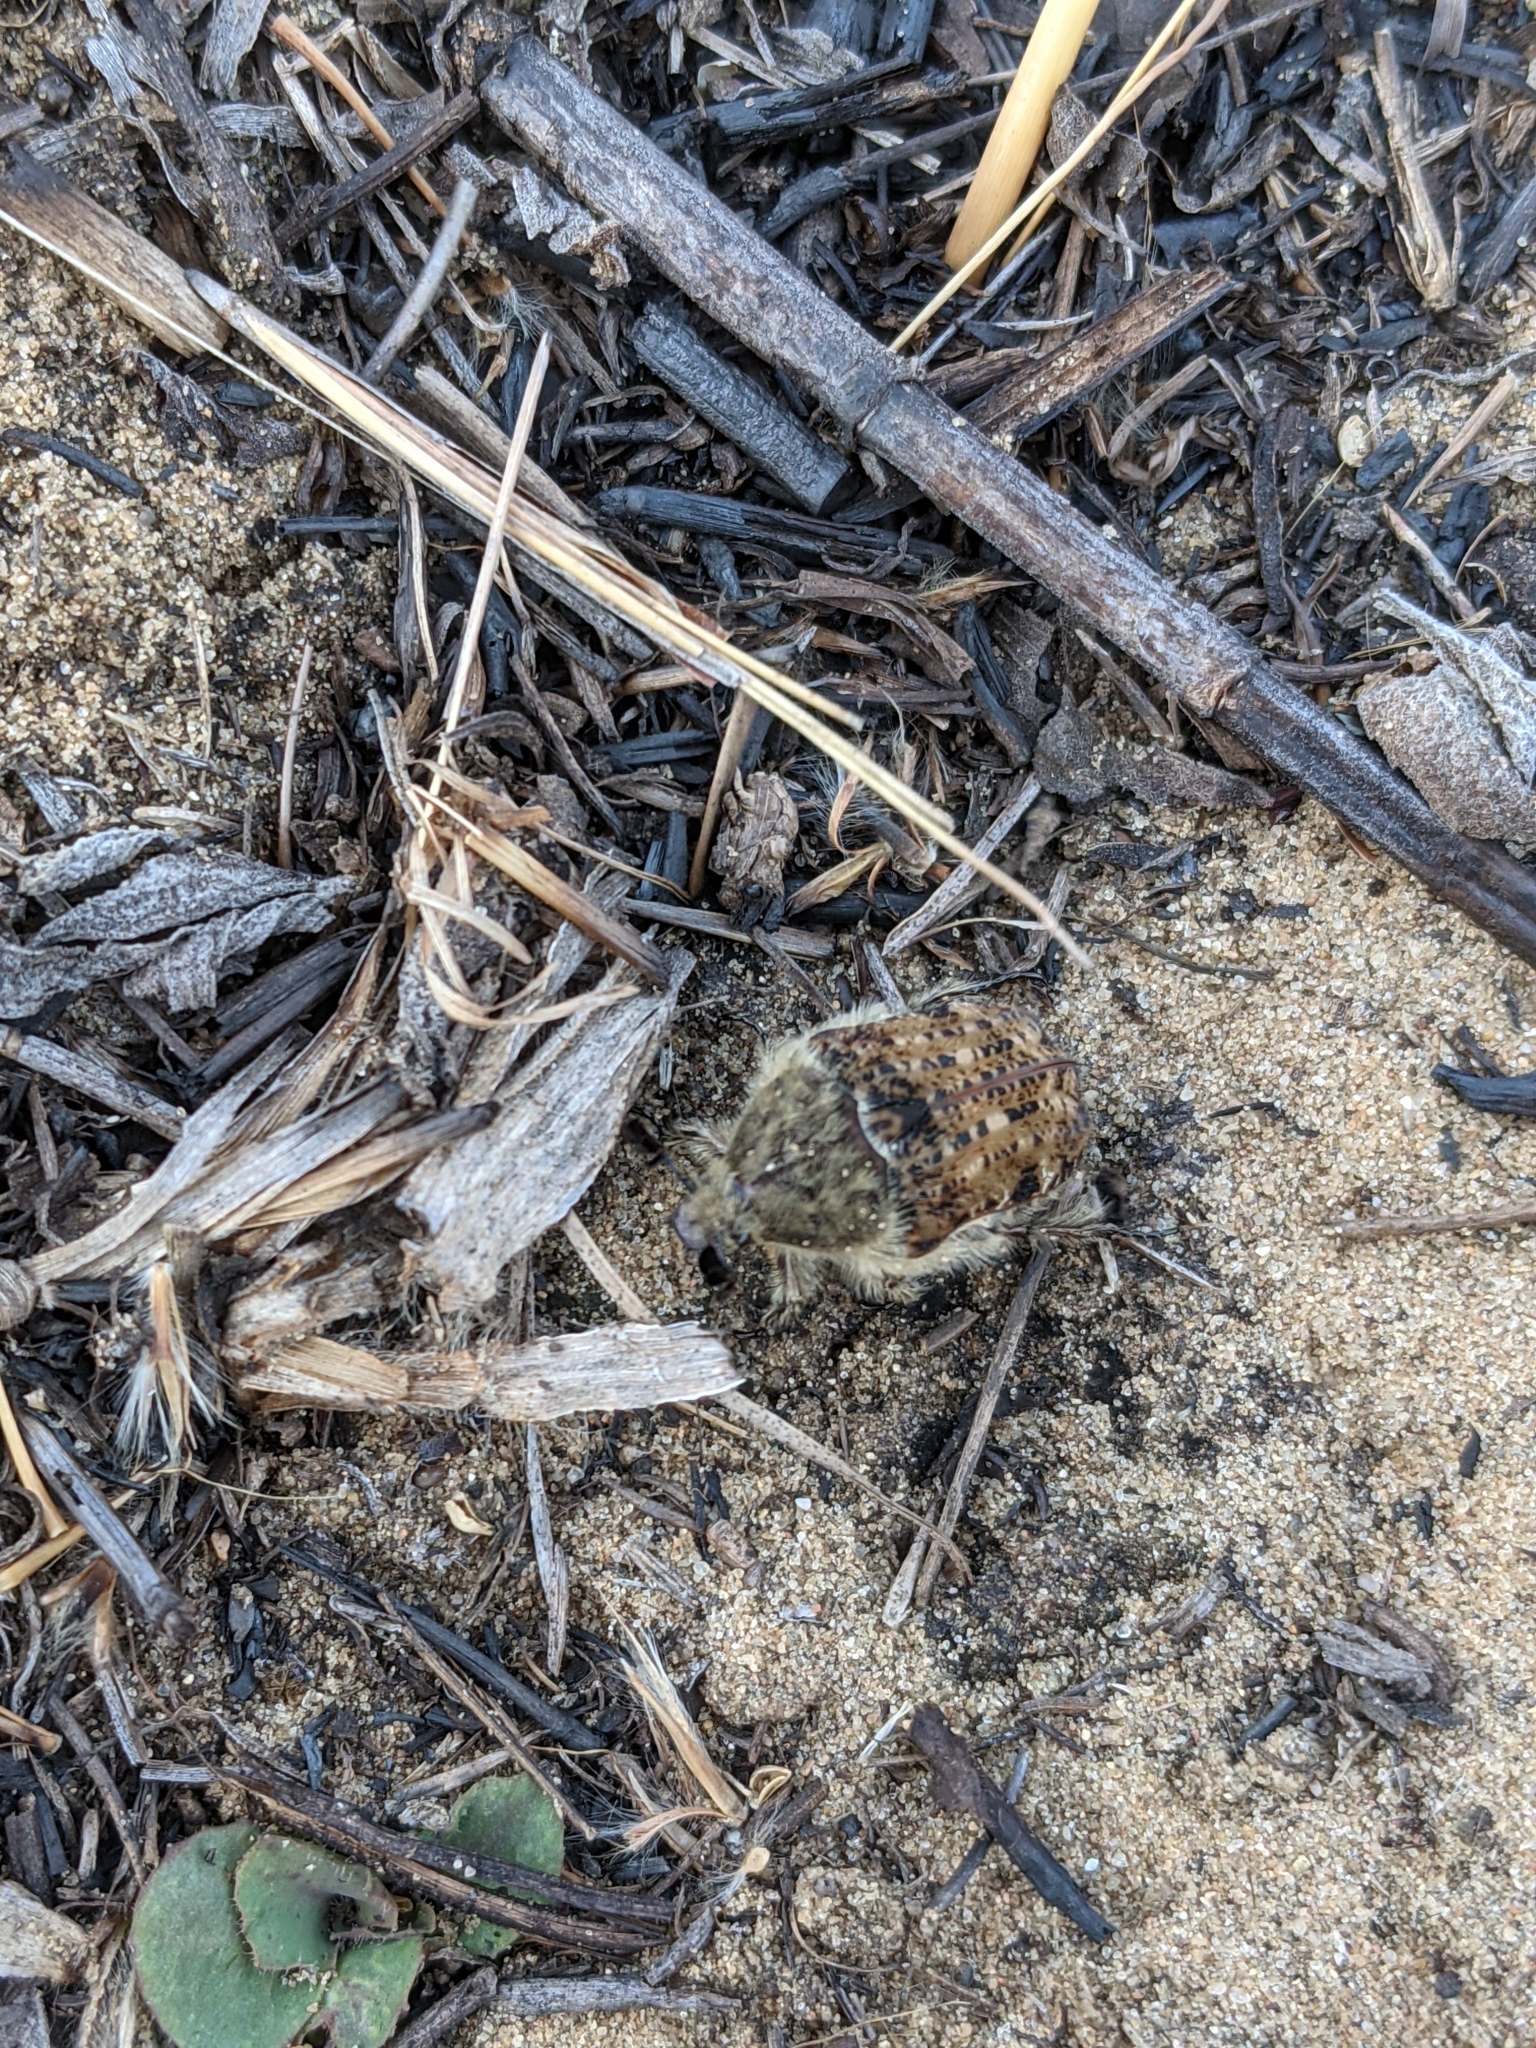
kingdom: Animalia
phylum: Arthropoda
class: Insecta
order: Coleoptera
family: Scarabaeidae
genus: Euphoria
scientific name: Euphoria inda
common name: Bumble flower beetle
